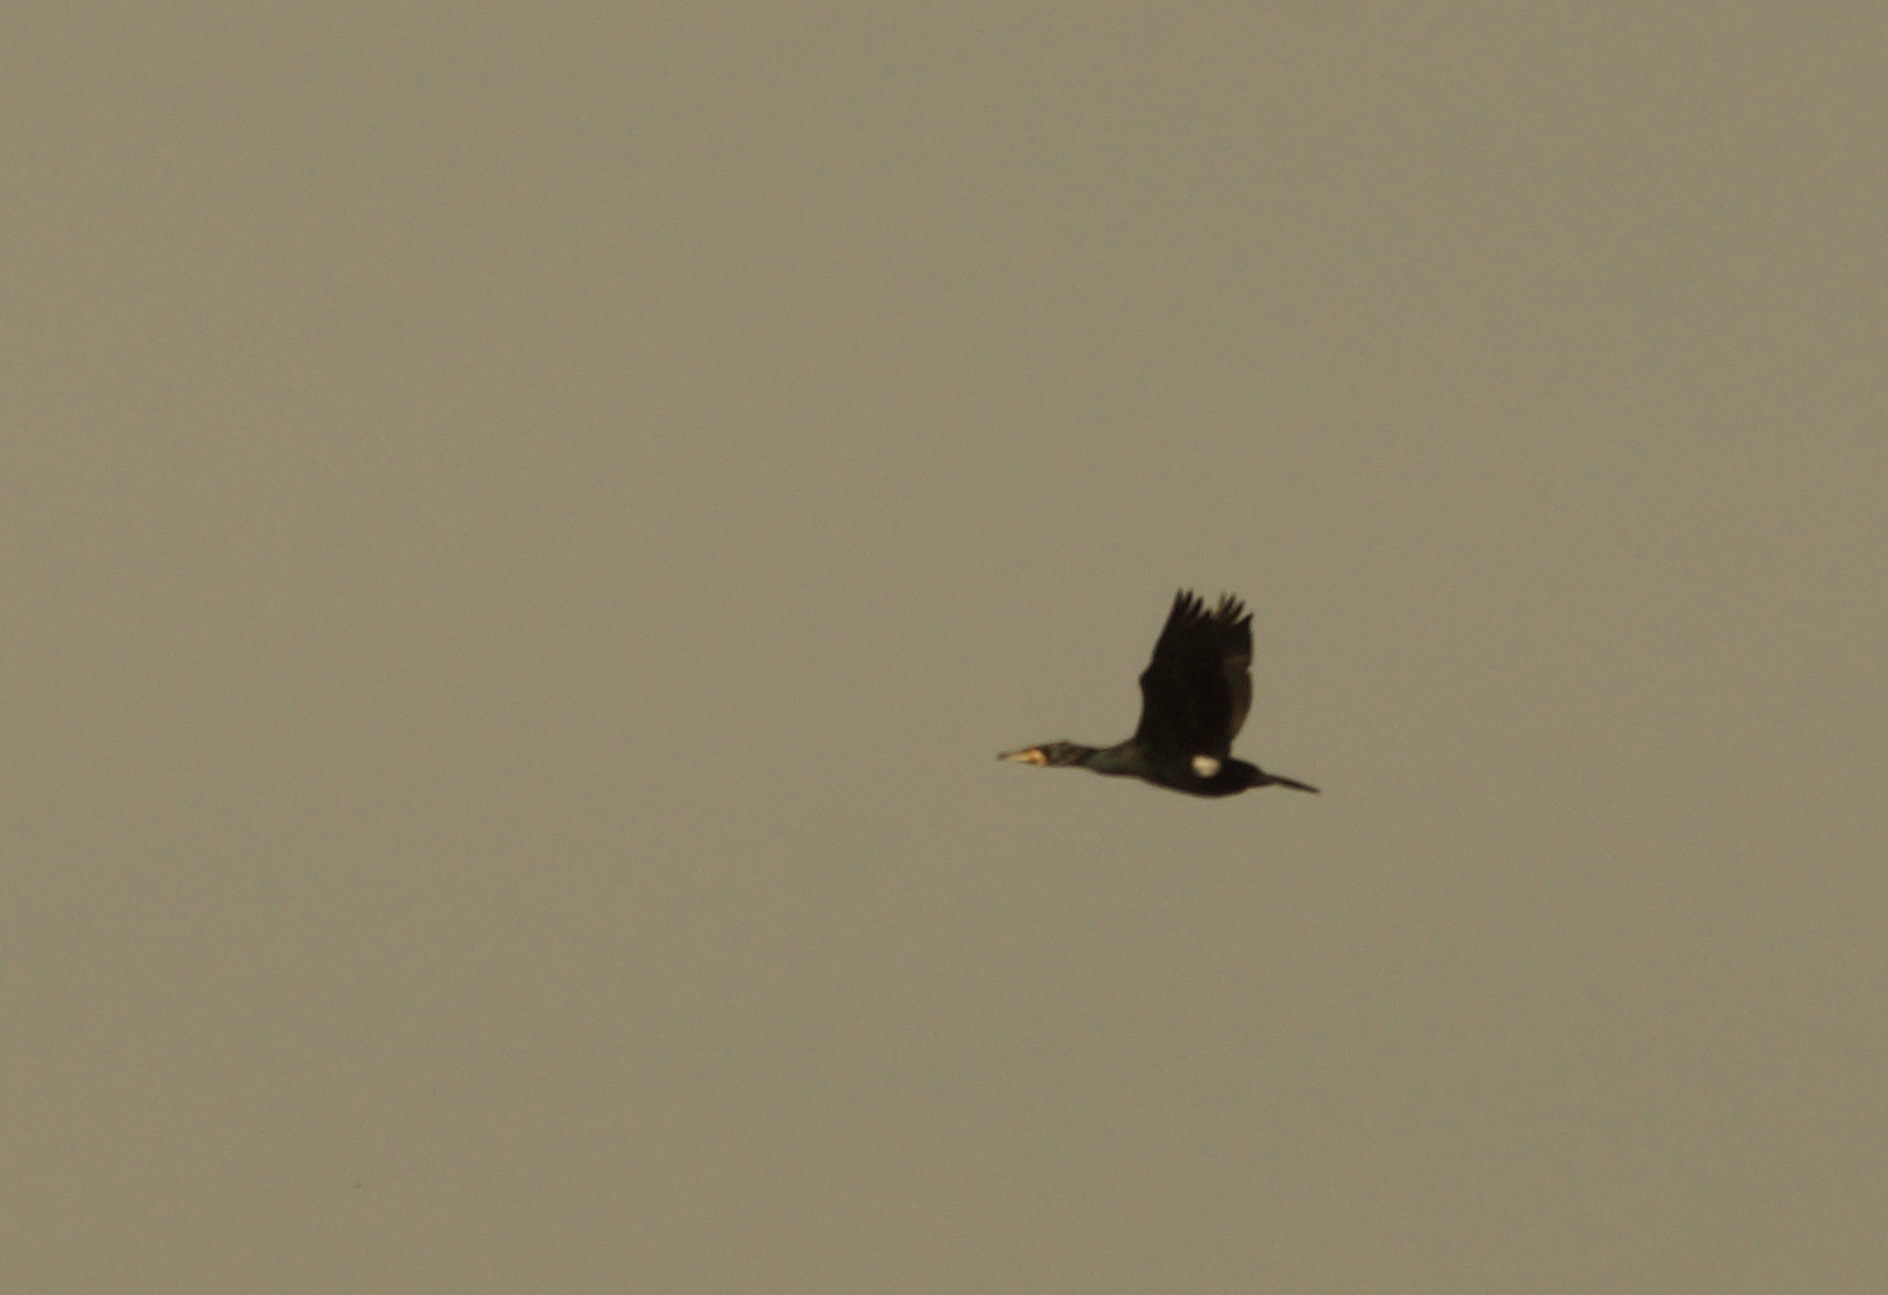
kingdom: Animalia
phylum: Chordata
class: Aves
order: Suliformes
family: Phalacrocoracidae
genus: Phalacrocorax
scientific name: Phalacrocorax carbo
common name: Great cormorant
